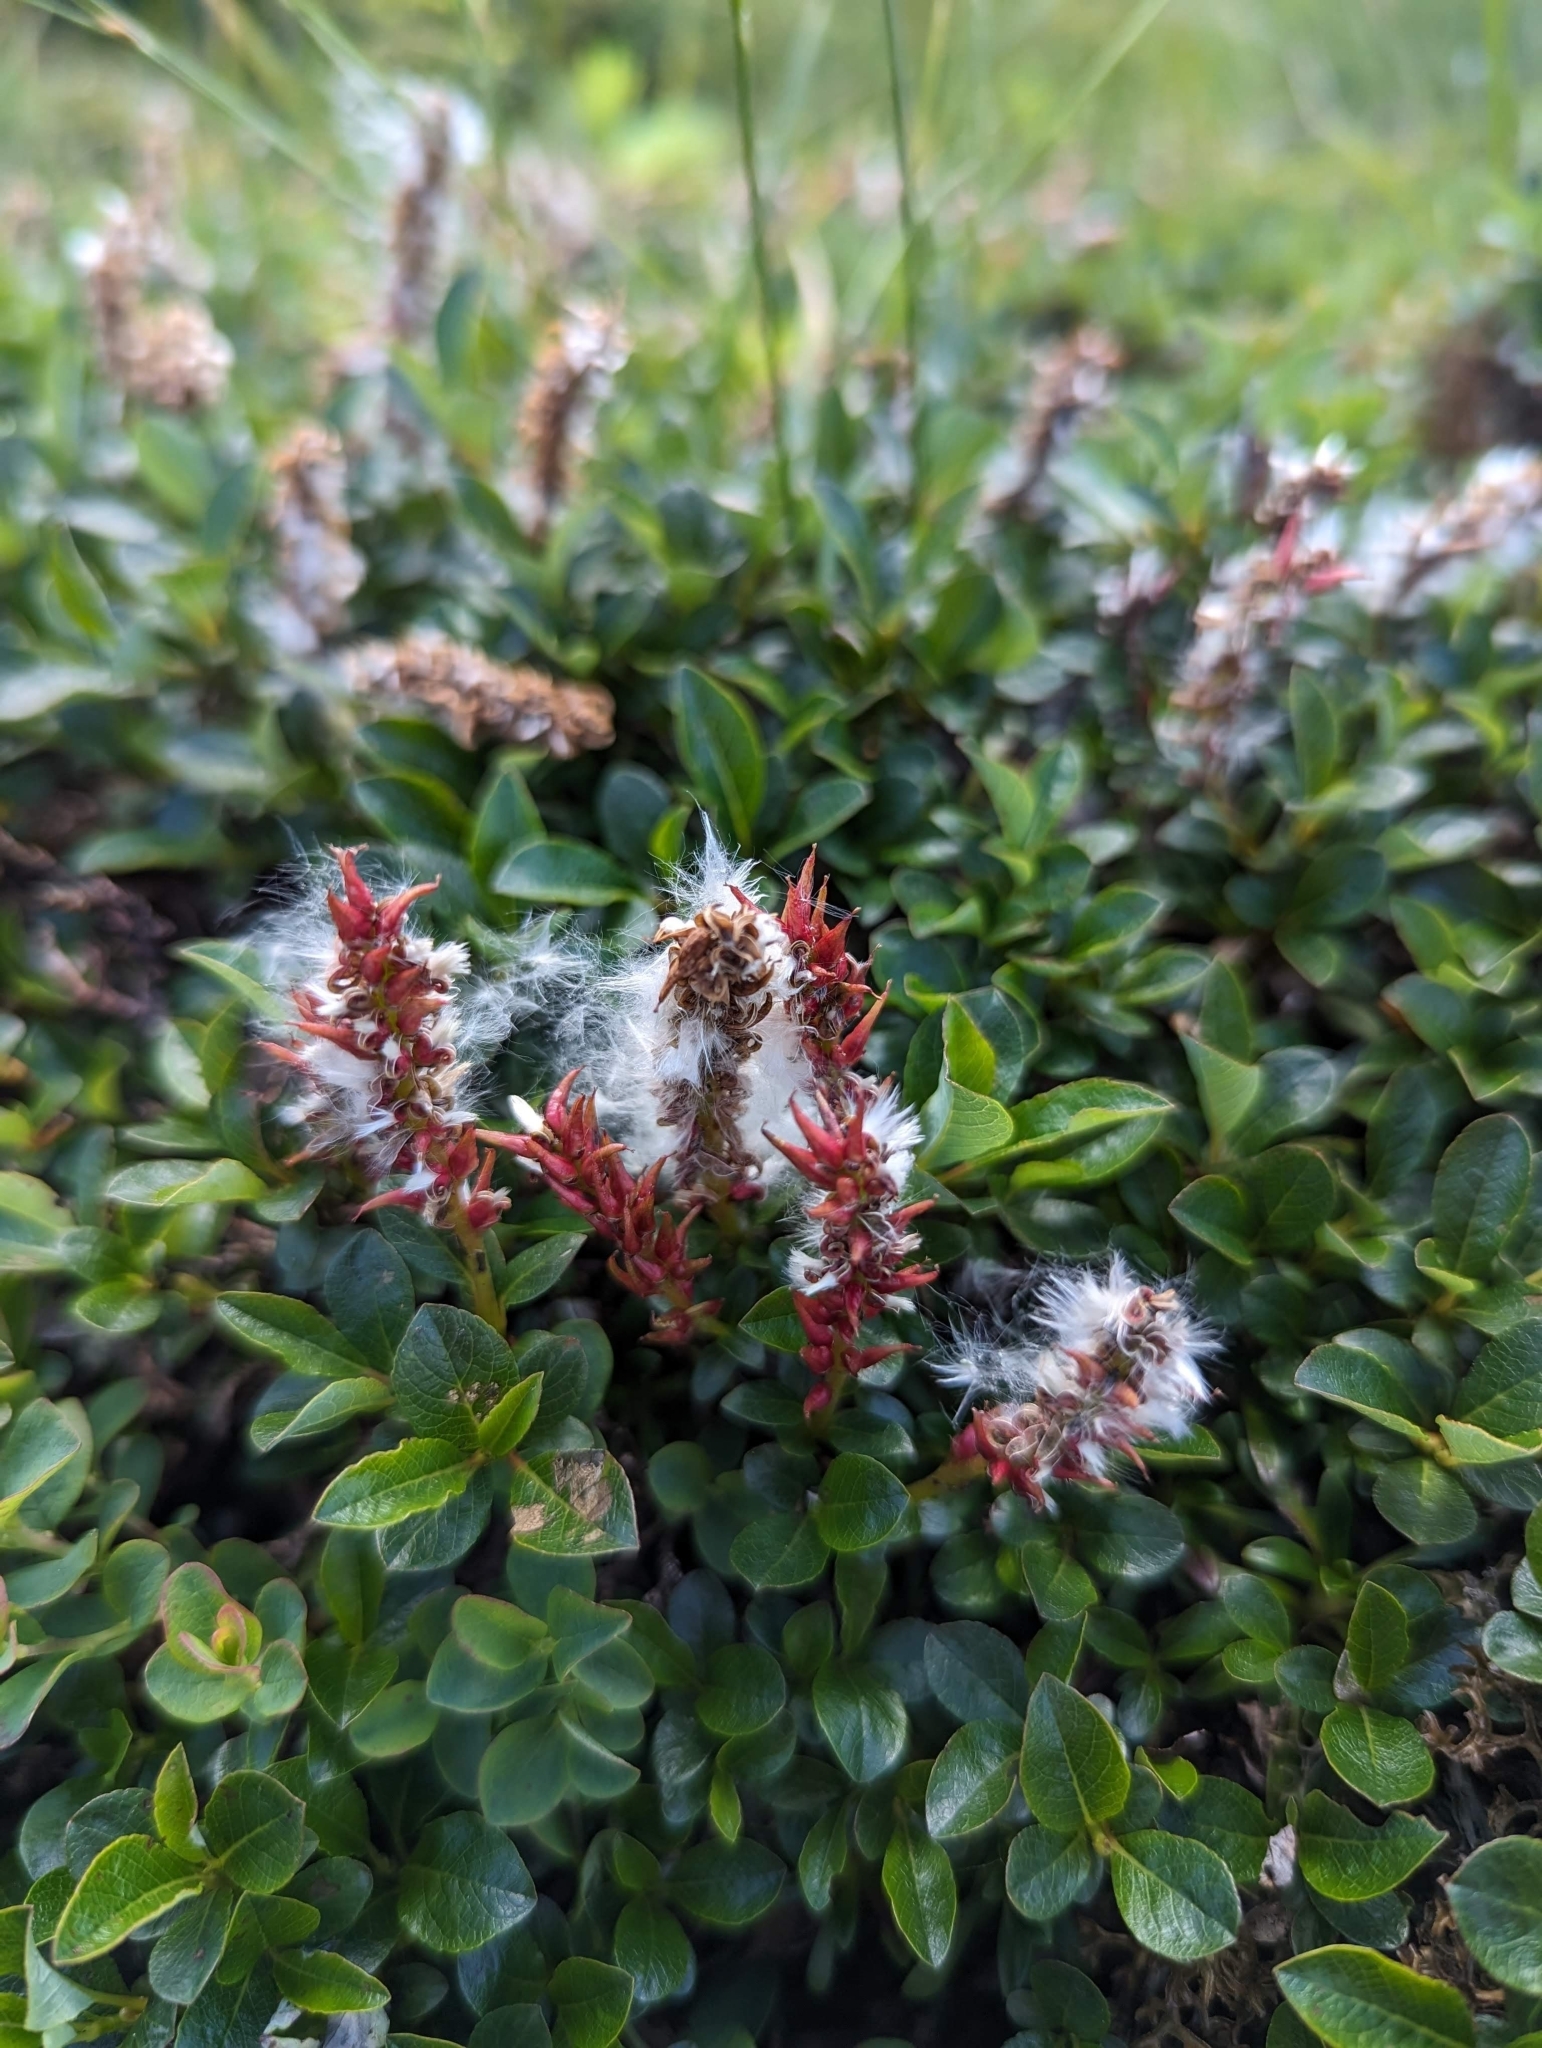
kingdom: Plantae
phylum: Tracheophyta
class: Magnoliopsida
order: Malpighiales
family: Salicaceae
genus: Salix
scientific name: Salix uva-ursi
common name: Bearberry willow
